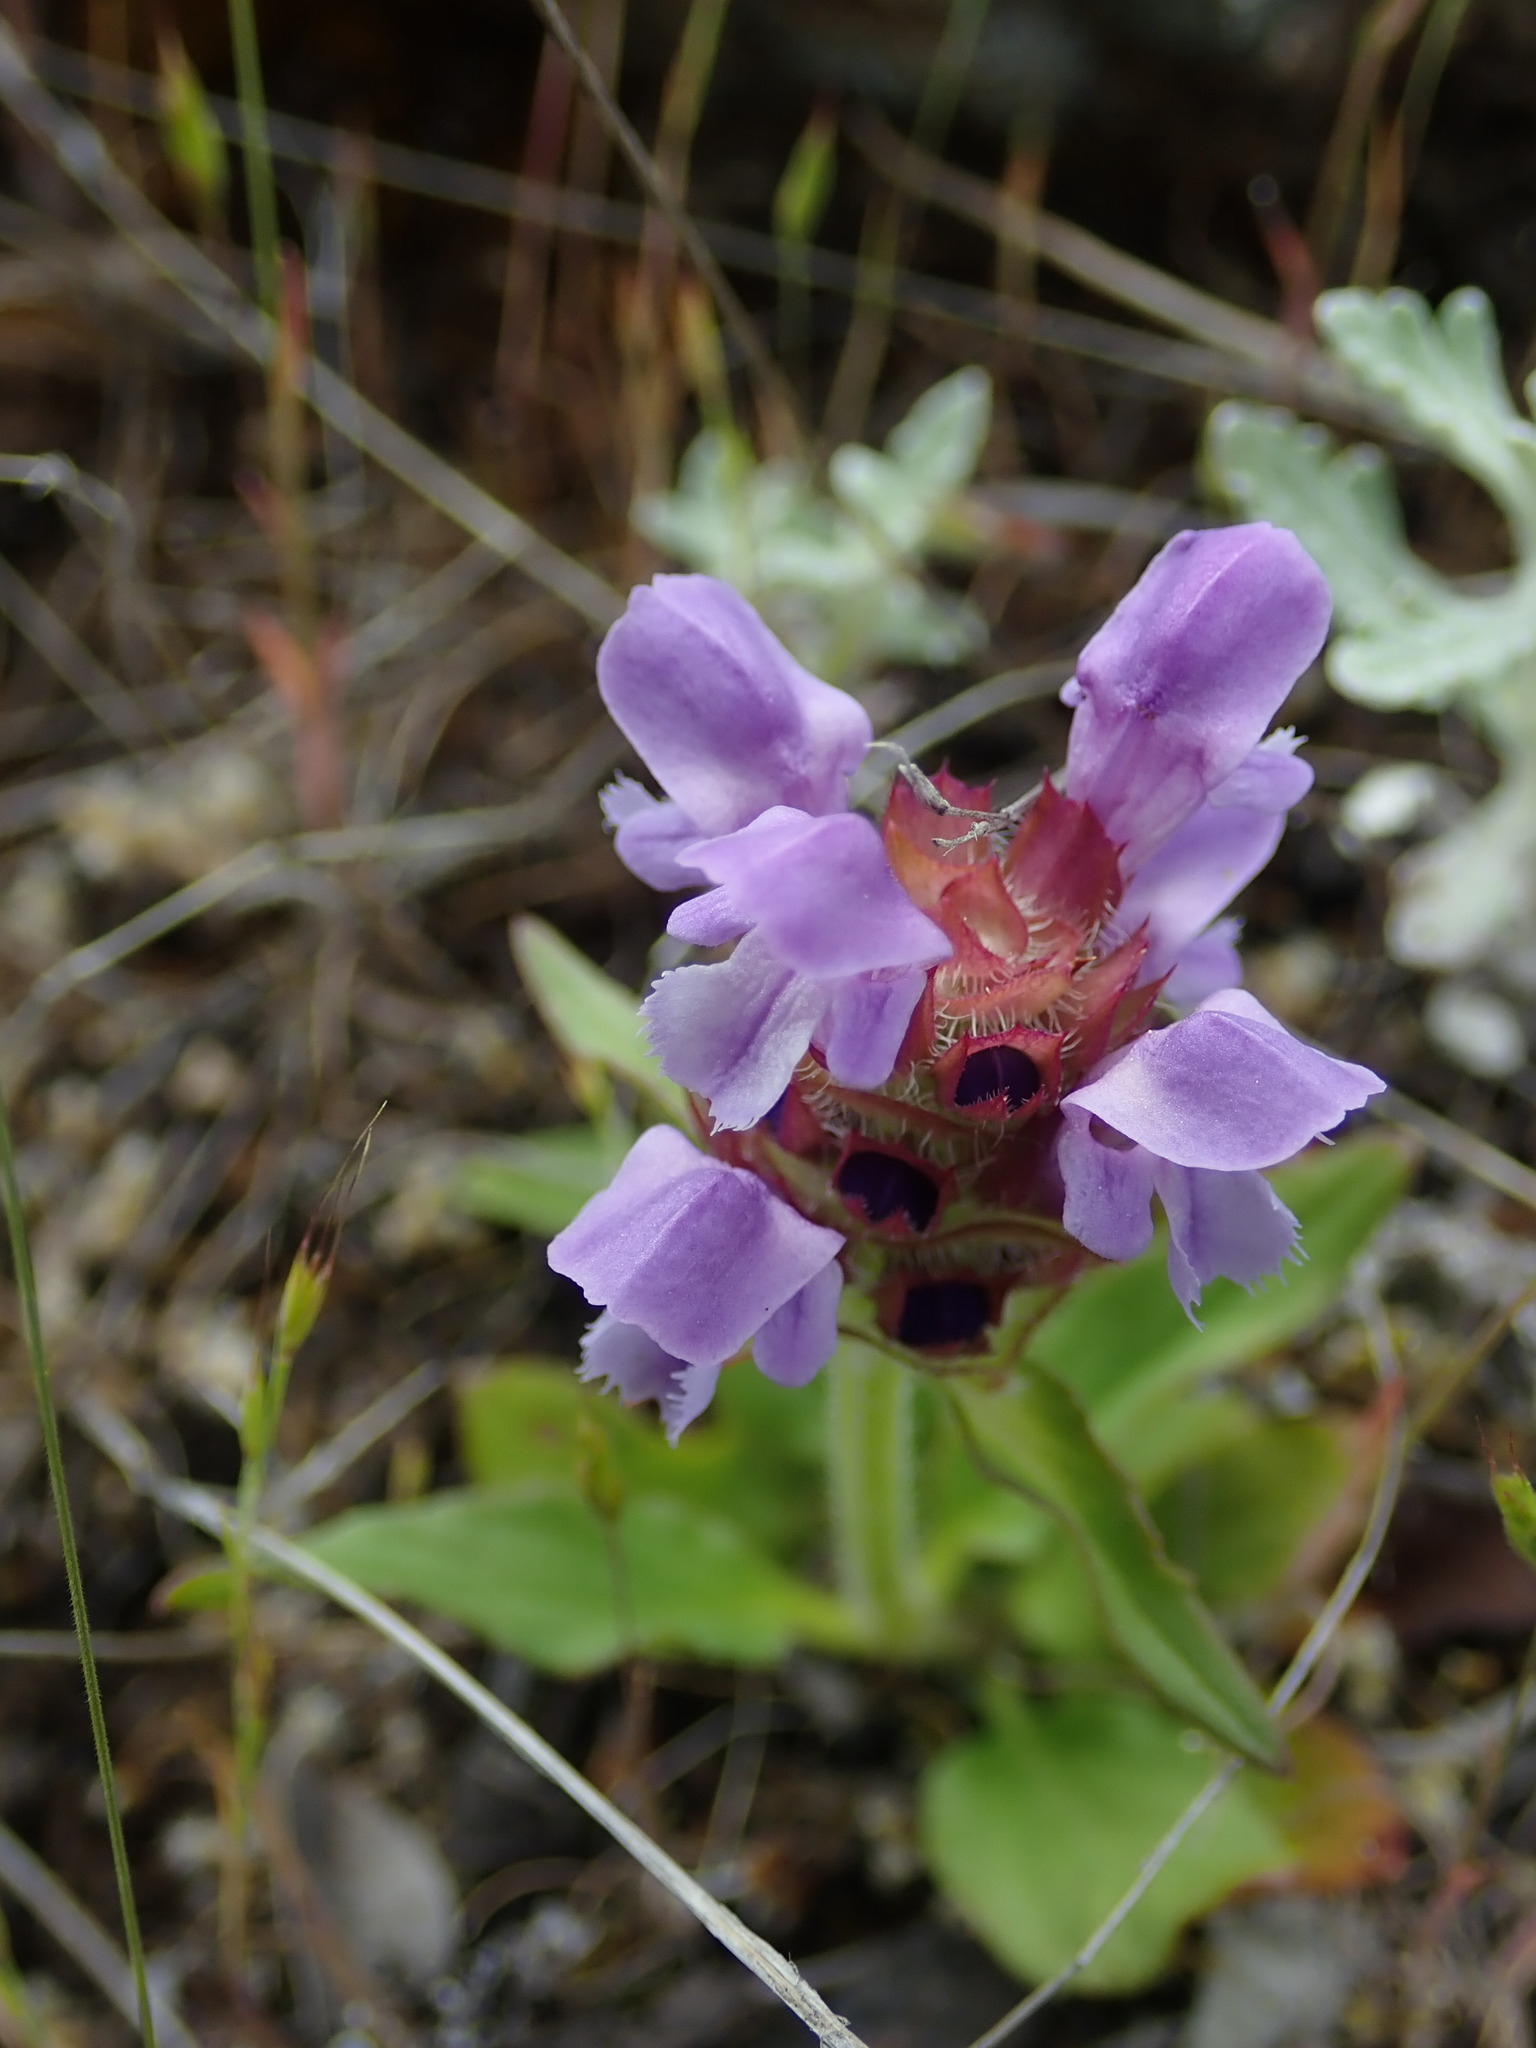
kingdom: Plantae
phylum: Tracheophyta
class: Magnoliopsida
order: Lamiales
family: Lamiaceae
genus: Prunella
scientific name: Prunella vulgaris
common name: Heal-all
